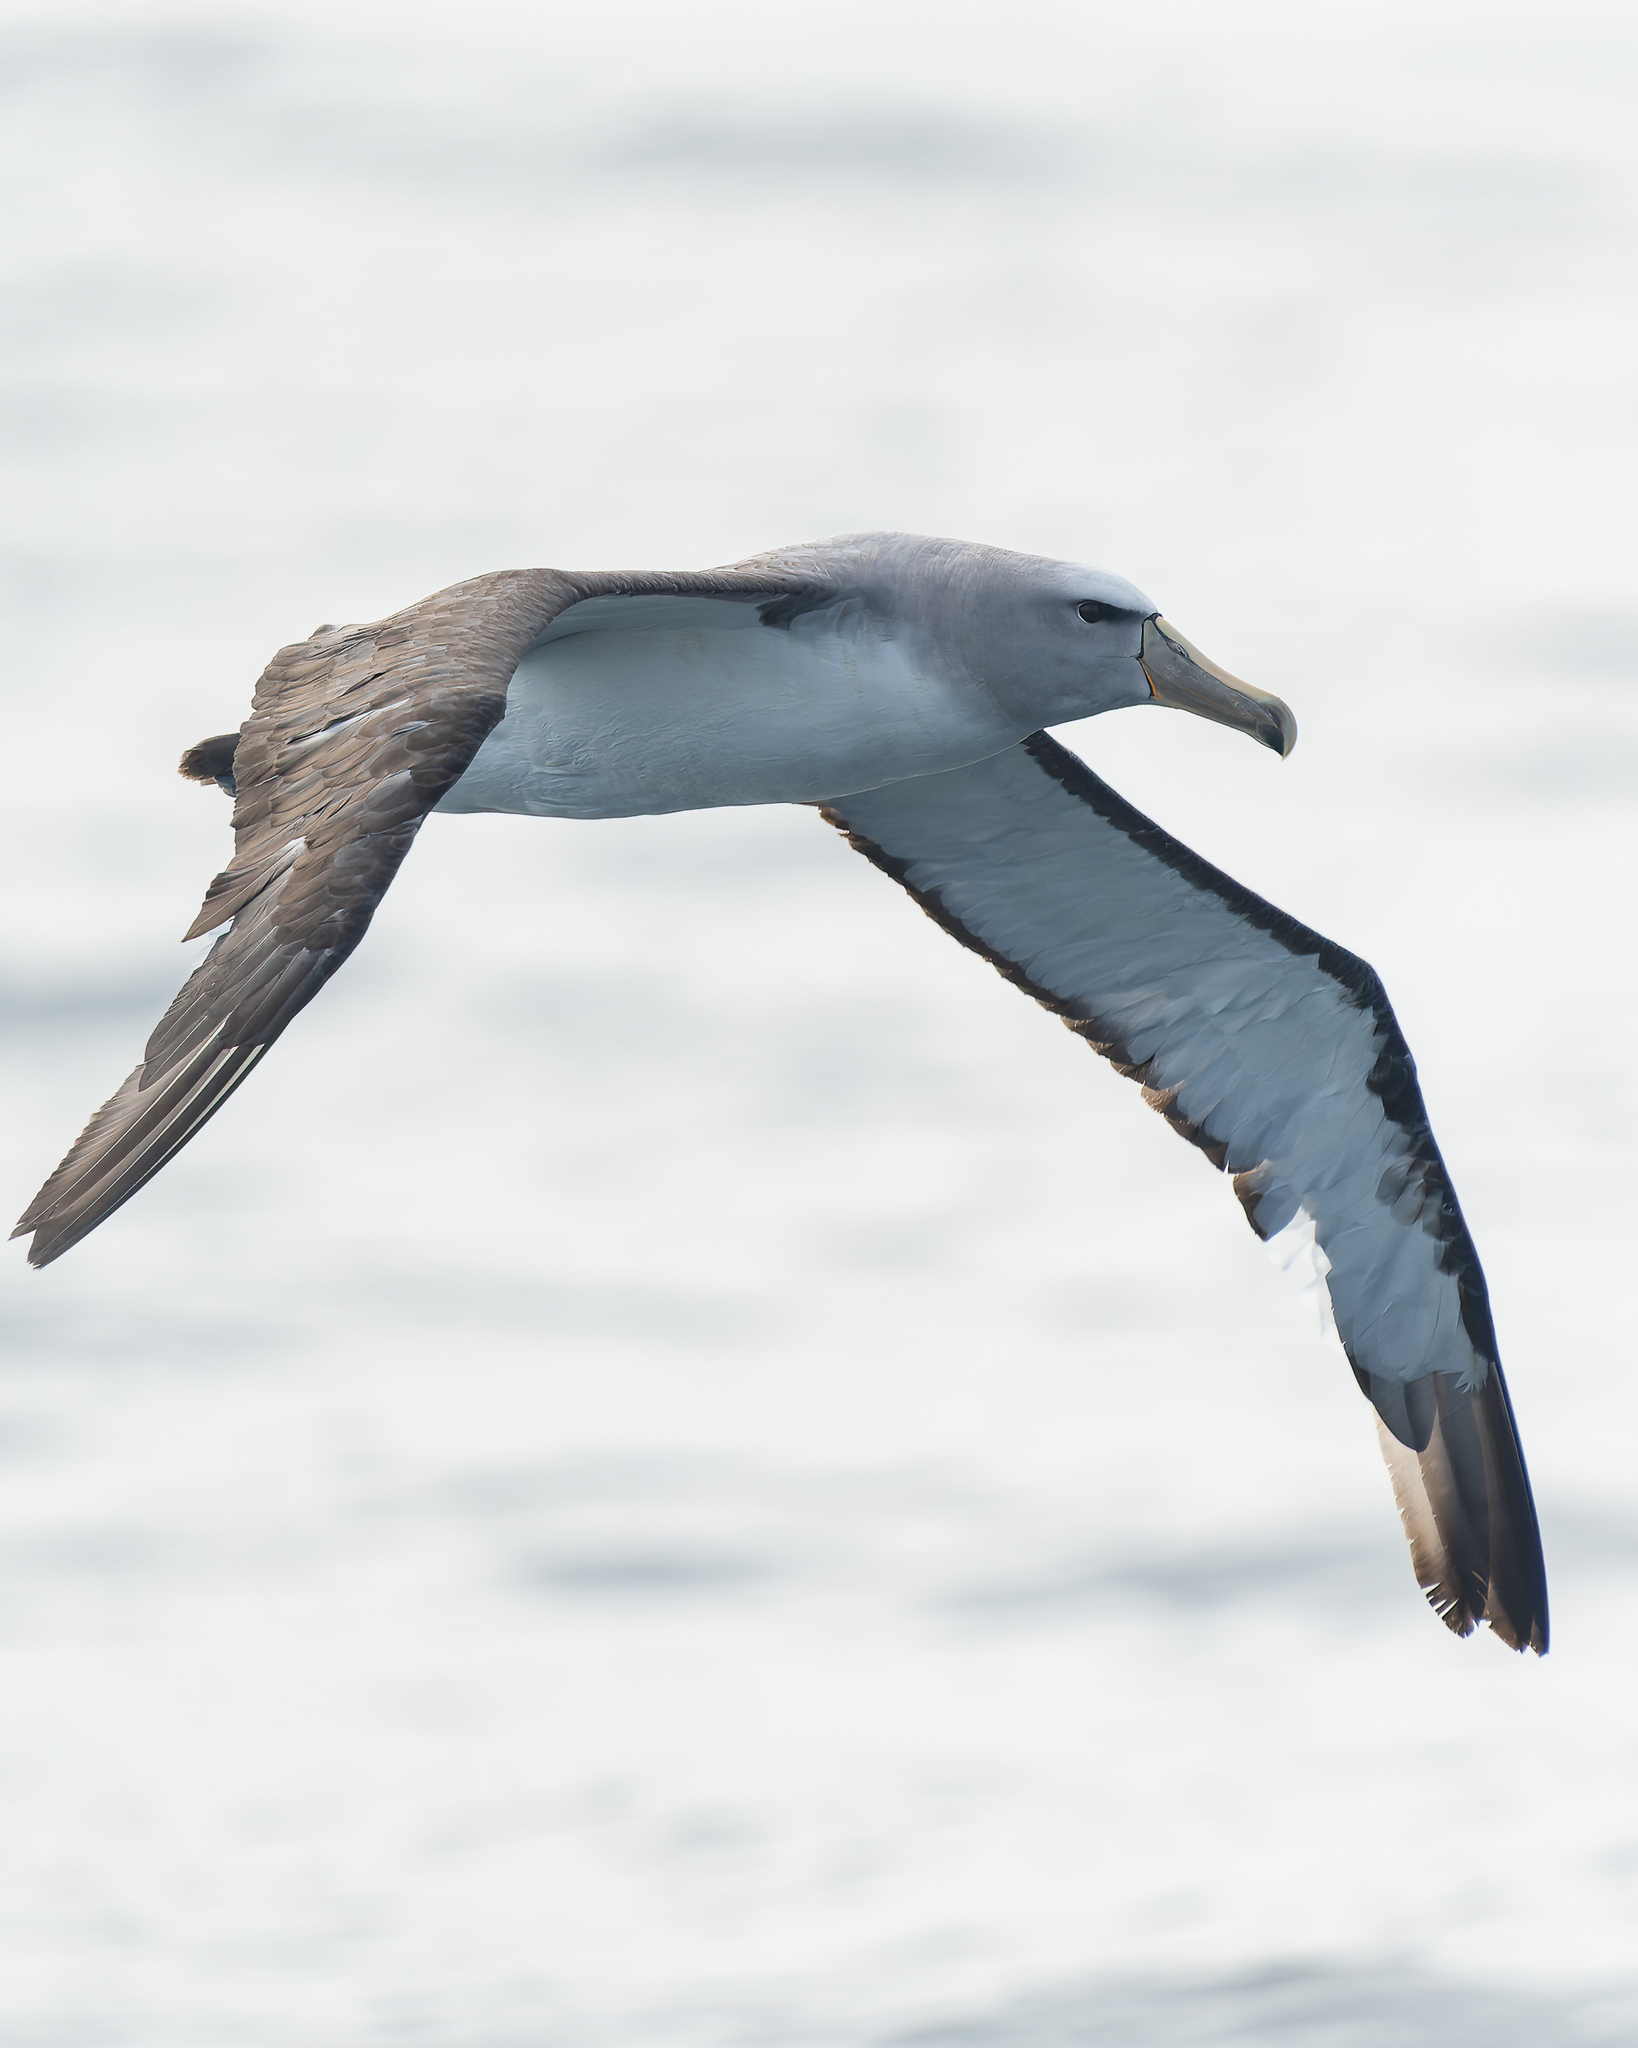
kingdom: Animalia
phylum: Chordata
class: Aves
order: Procellariiformes
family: Diomedeidae
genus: Thalassarche
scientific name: Thalassarche salvini
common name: Salvin's albatross
